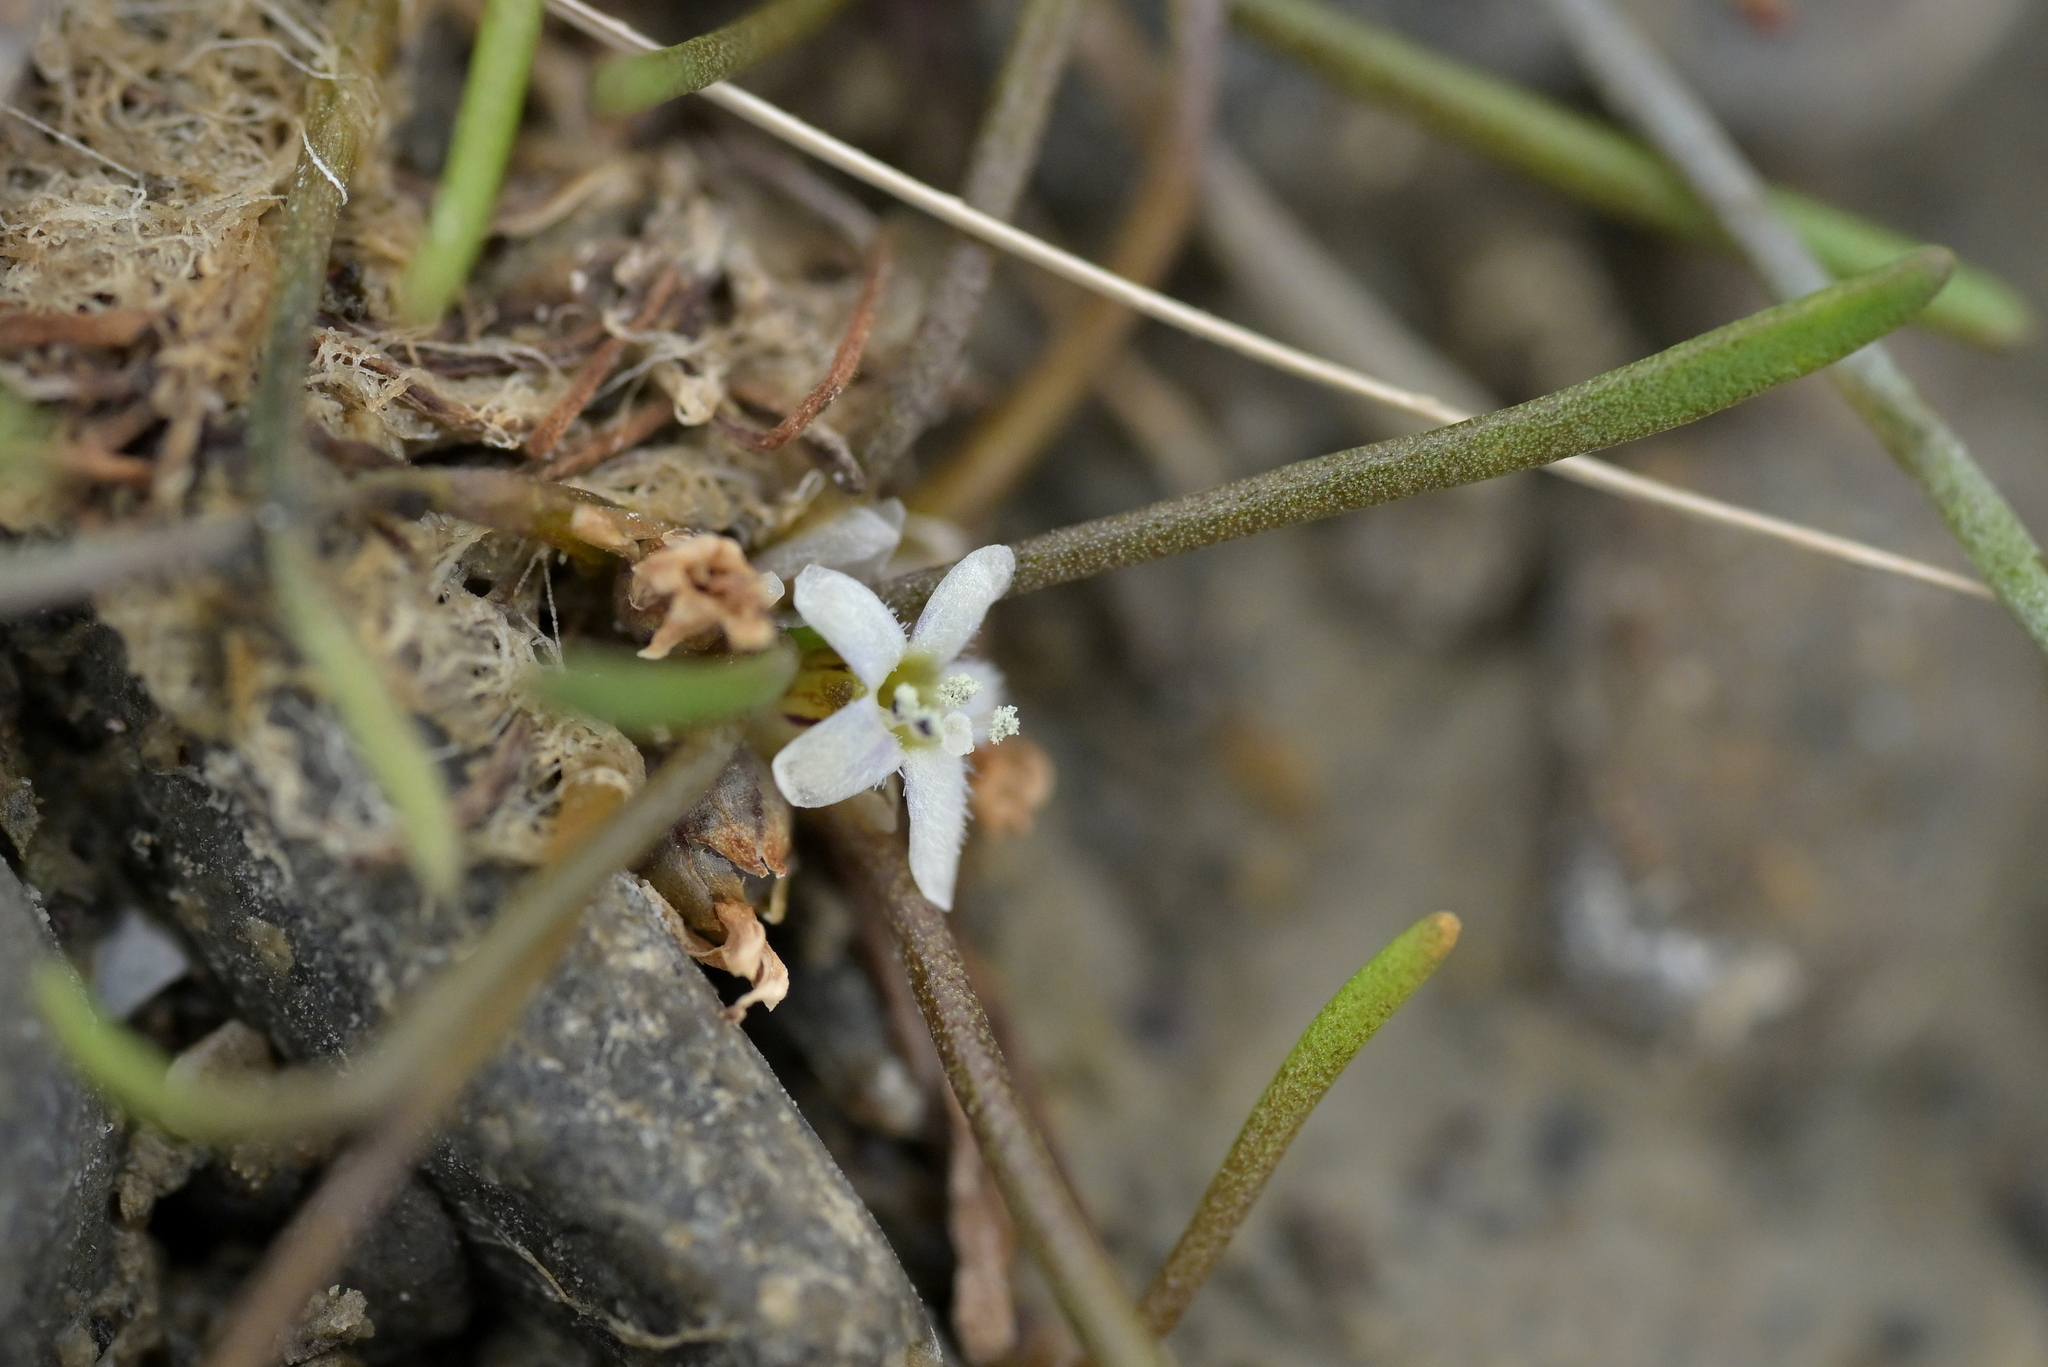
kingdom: Plantae
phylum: Tracheophyta
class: Magnoliopsida
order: Lamiales
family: Scrophulariaceae
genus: Limosella
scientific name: Limosella australis
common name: Welsh mudwort
